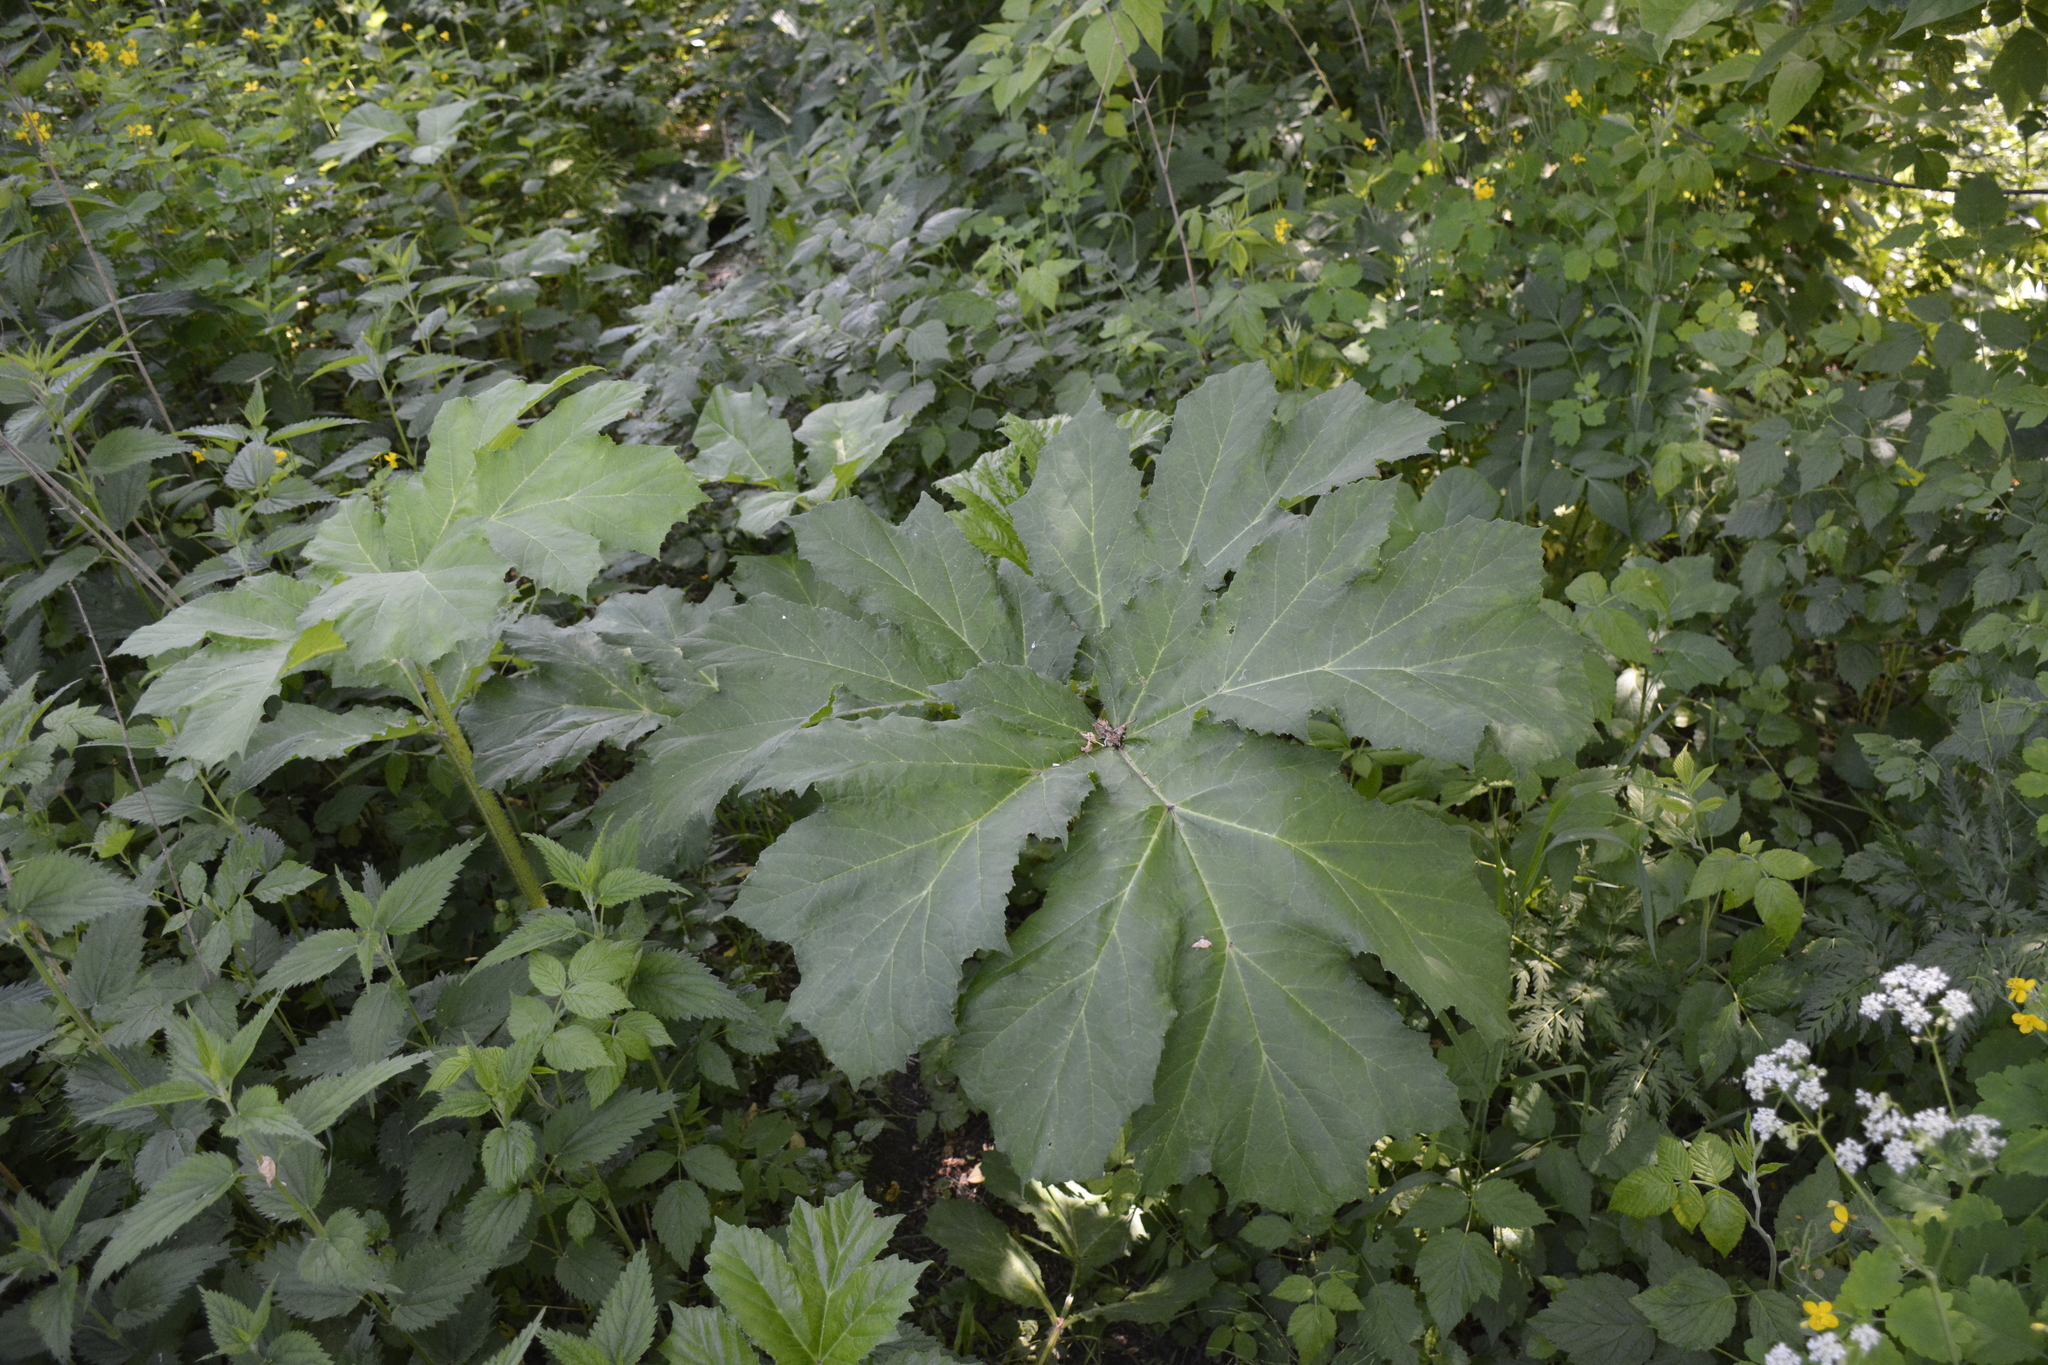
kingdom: Plantae
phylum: Tracheophyta
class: Magnoliopsida
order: Apiales
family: Apiaceae
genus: Heracleum
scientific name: Heracleum sosnowskyi
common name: Sosnowsky's hogweed
